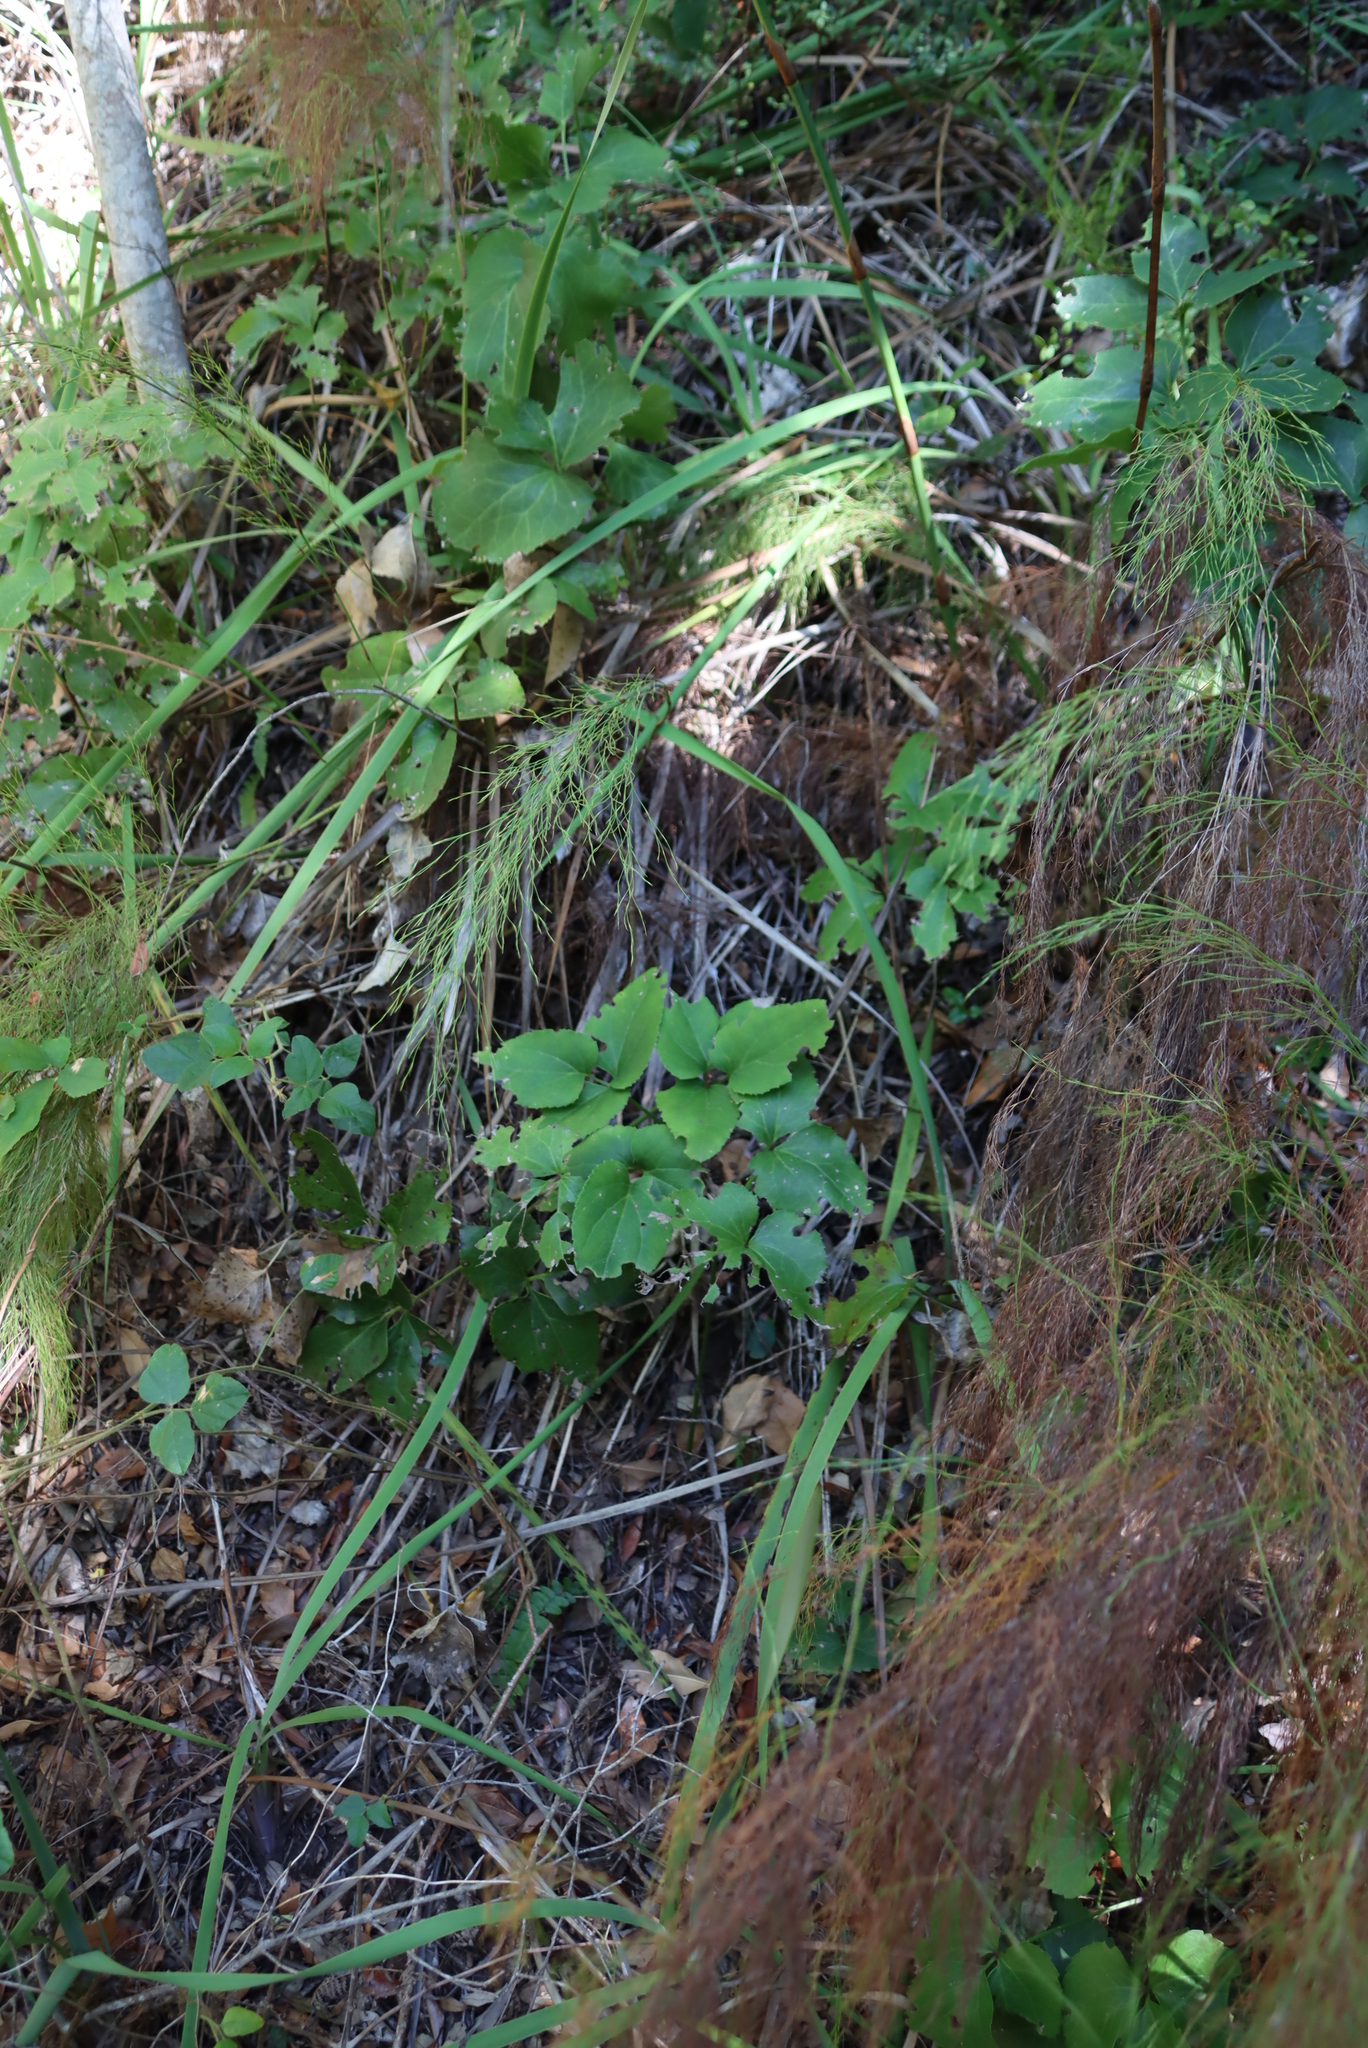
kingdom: Plantae
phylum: Tracheophyta
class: Magnoliopsida
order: Ranunculales
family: Ranunculaceae
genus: Knowltonia
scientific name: Knowltonia vesicatoria
